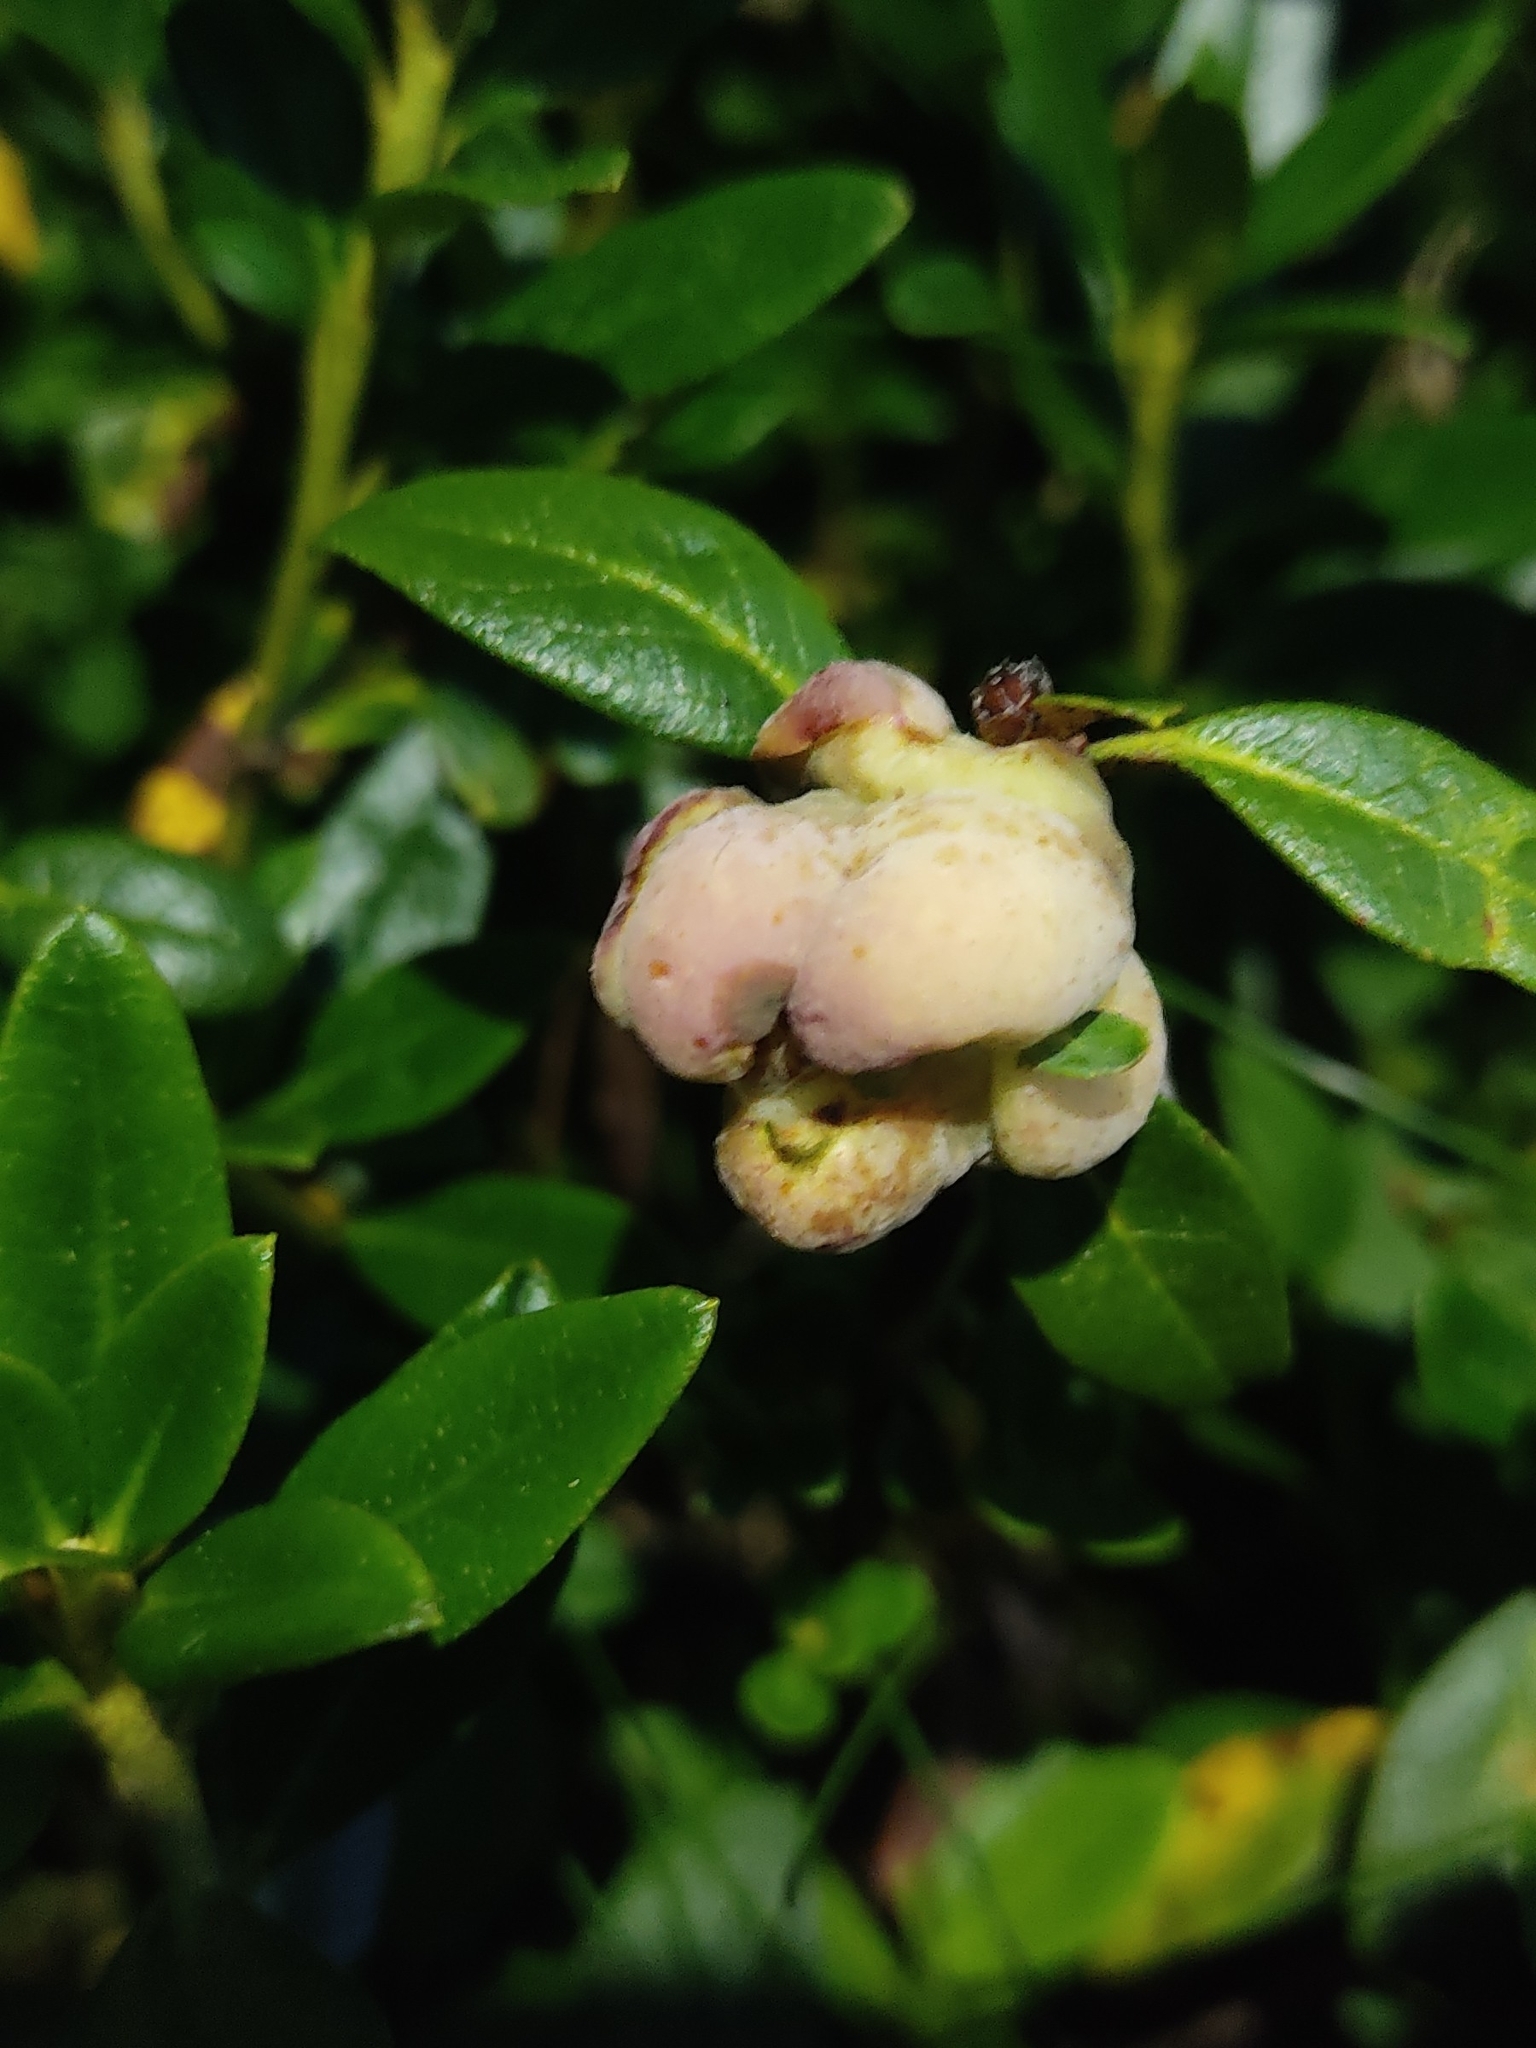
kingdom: Fungi
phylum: Basidiomycota
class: Exobasidiomycetes
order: Exobasidiales
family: Exobasidiaceae
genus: Exobasidium
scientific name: Exobasidium rhododendri
